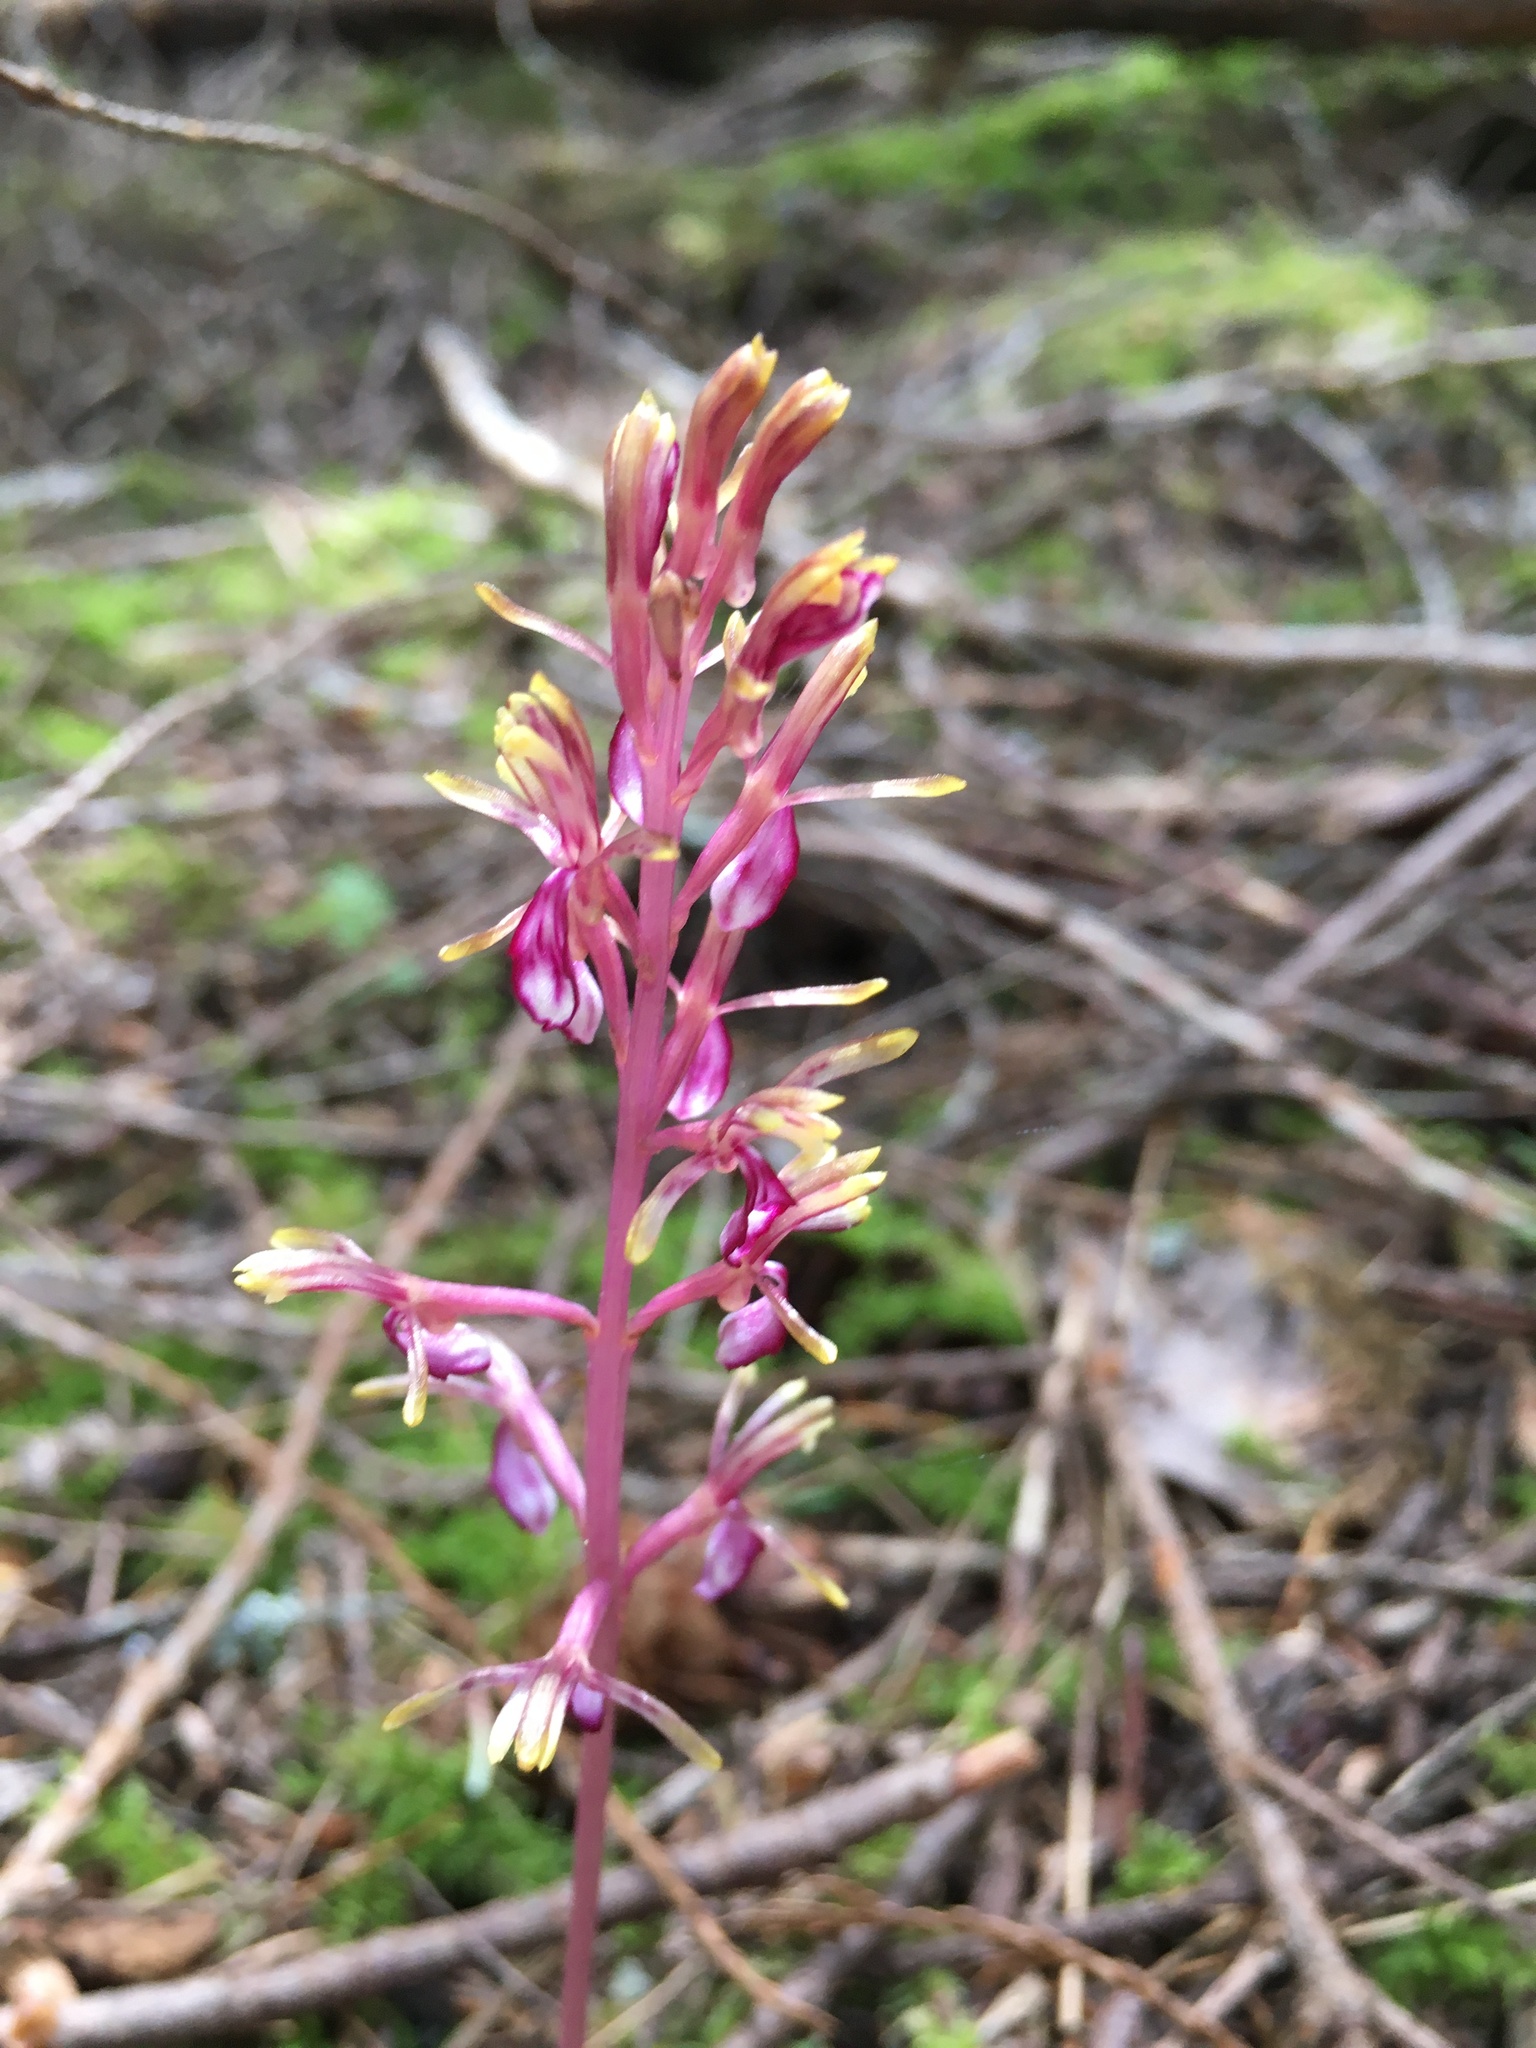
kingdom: Plantae
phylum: Tracheophyta
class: Liliopsida
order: Asparagales
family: Orchidaceae
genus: Corallorhiza
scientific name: Corallorhiza mertensiana
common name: Pacific coralroot
